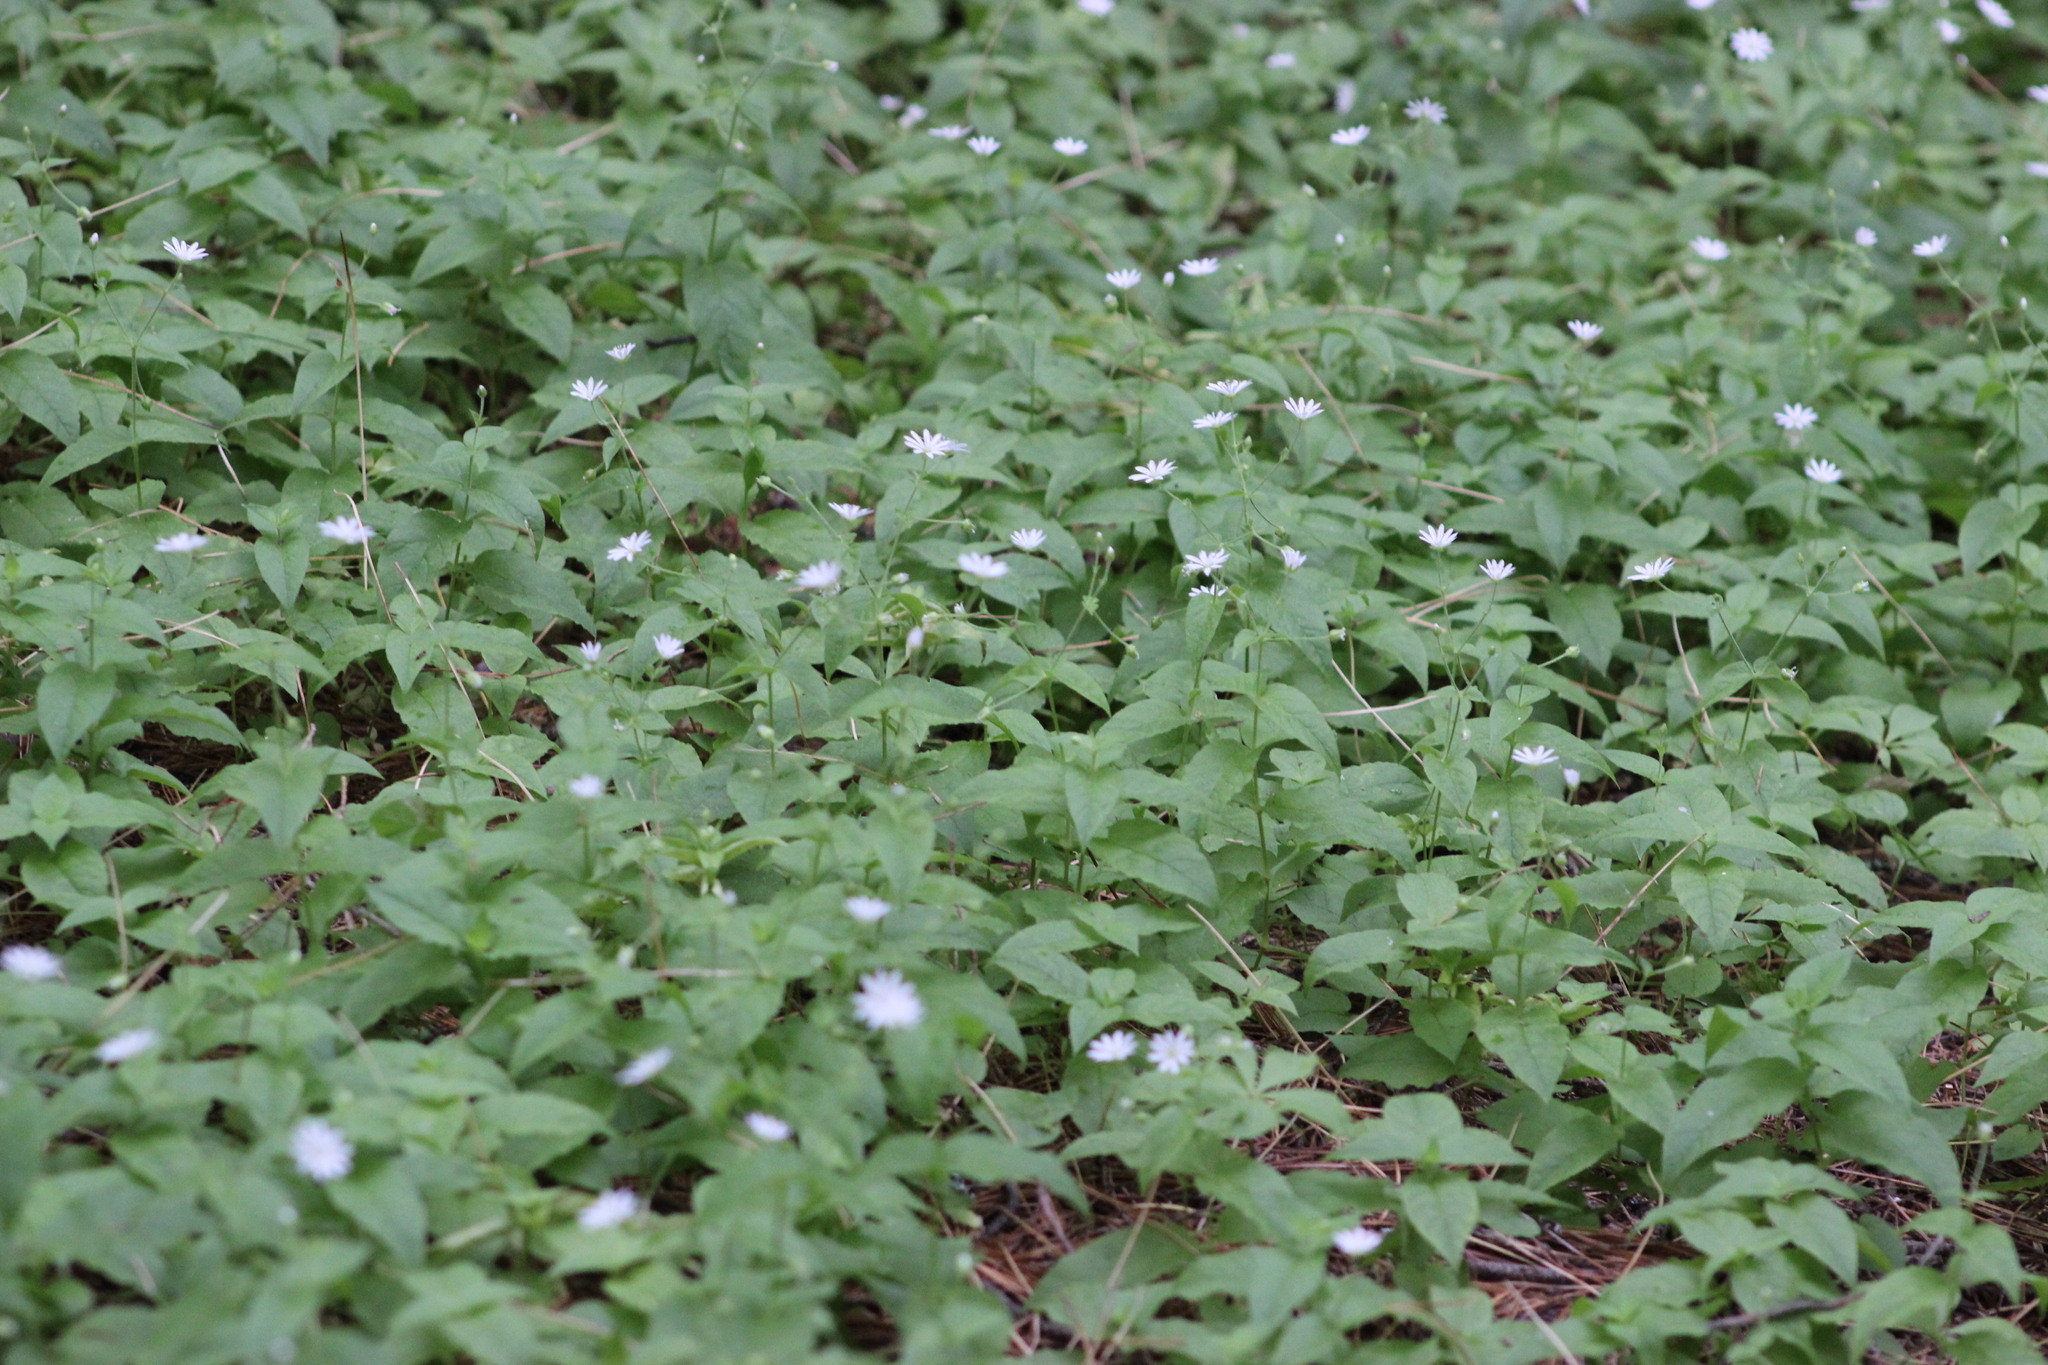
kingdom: Plantae
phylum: Tracheophyta
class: Magnoliopsida
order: Caryophyllales
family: Caryophyllaceae
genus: Stellaria
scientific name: Stellaria bungeana
